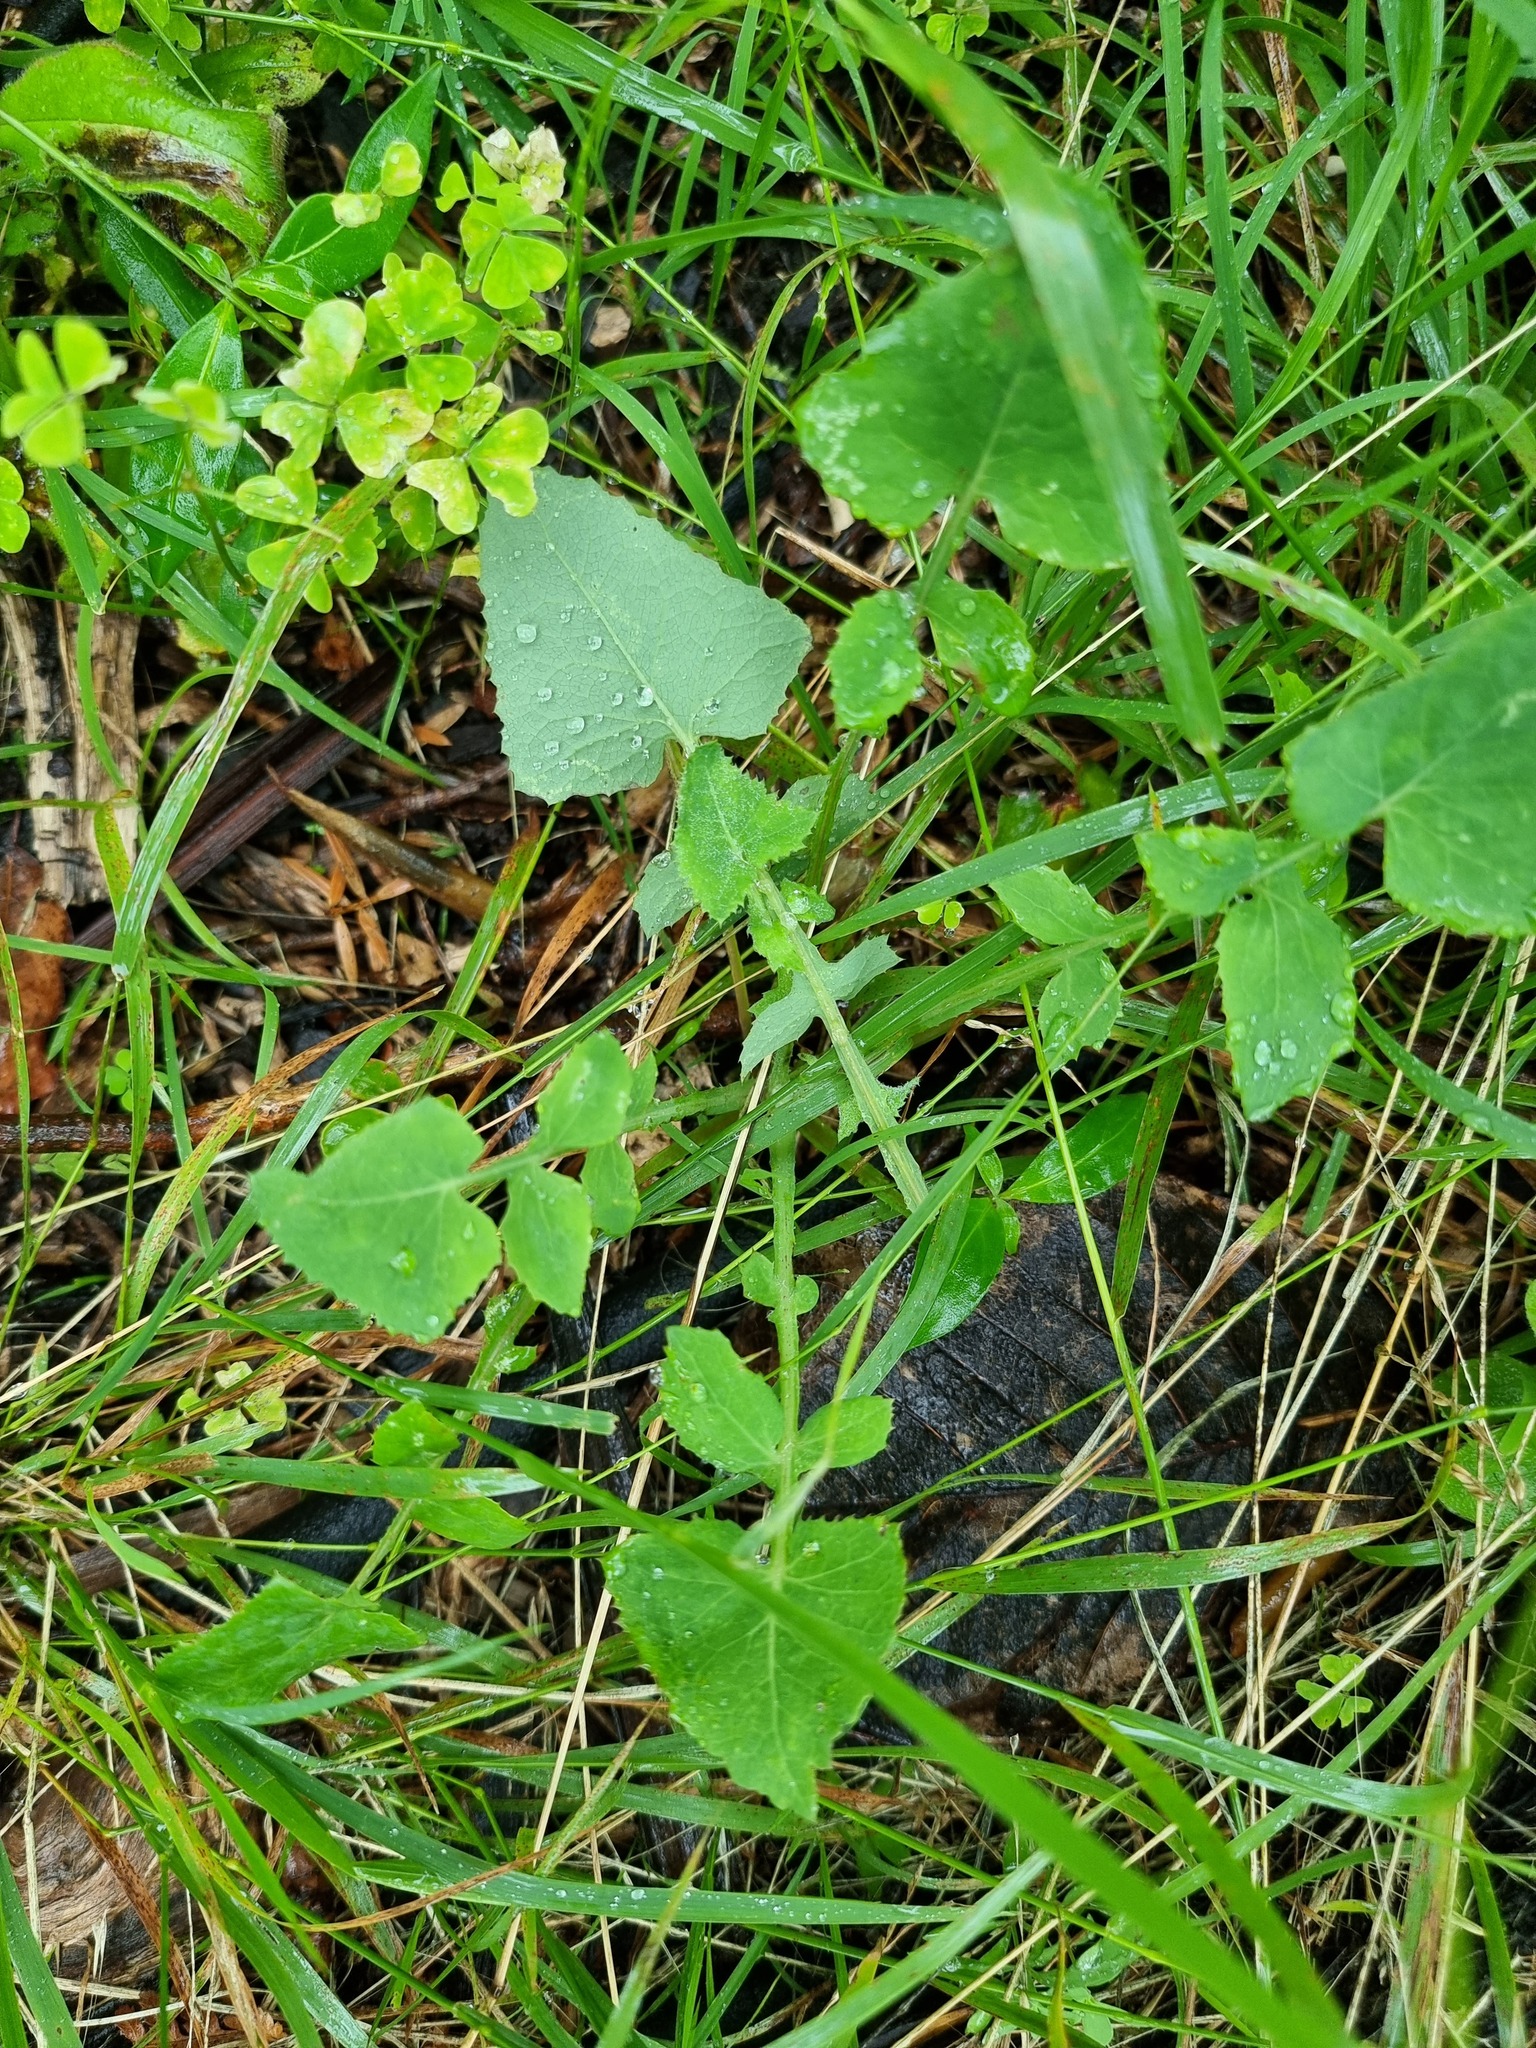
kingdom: Plantae
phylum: Tracheophyta
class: Magnoliopsida
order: Asterales
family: Asteraceae
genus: Sonchus
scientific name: Sonchus oleraceus
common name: Common sowthistle
